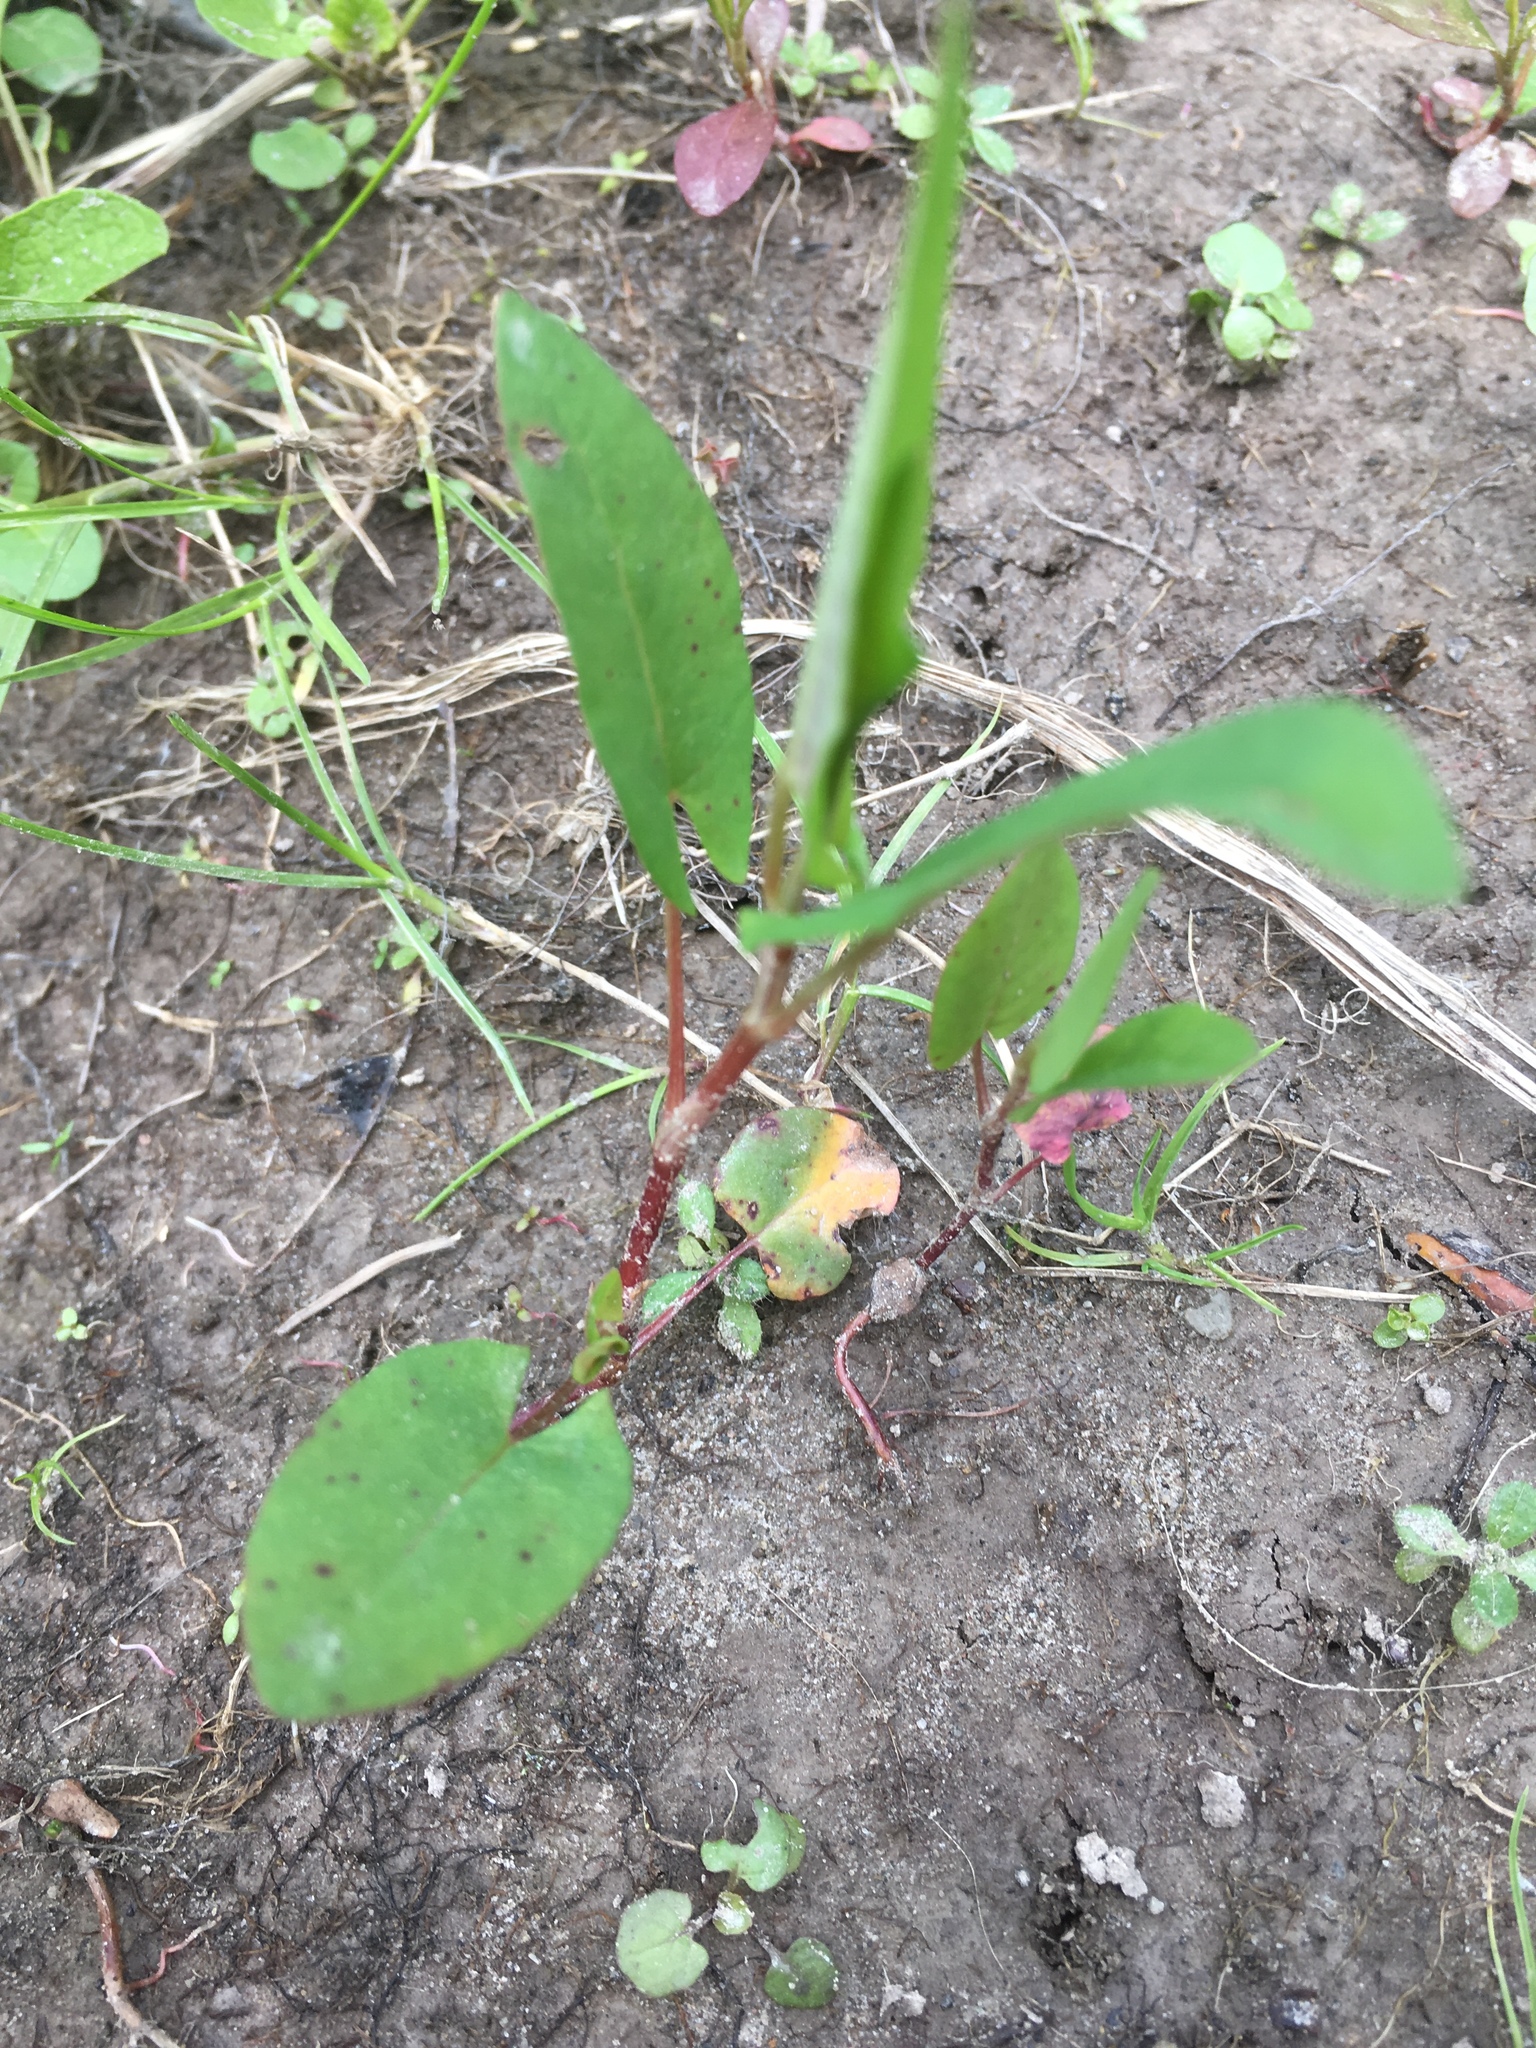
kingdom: Plantae
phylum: Tracheophyta
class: Magnoliopsida
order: Caryophyllales
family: Polygonaceae
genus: Persicaria
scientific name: Persicaria sagittata
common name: American tearthumb
